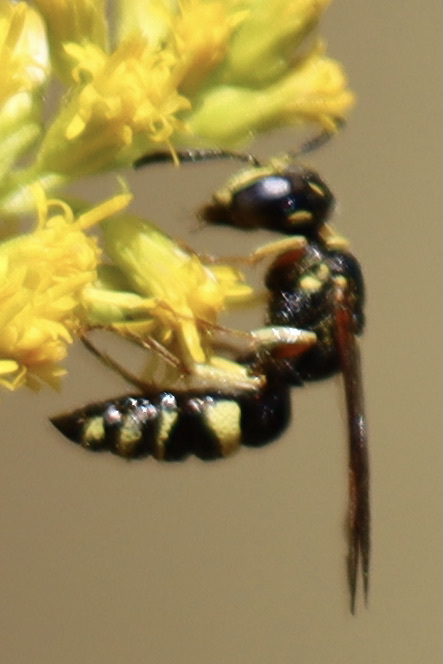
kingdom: Animalia
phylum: Arthropoda
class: Insecta
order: Hymenoptera
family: Crabronidae
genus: Philanthus
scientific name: Philanthus gibbosus
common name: Humped beewolf
